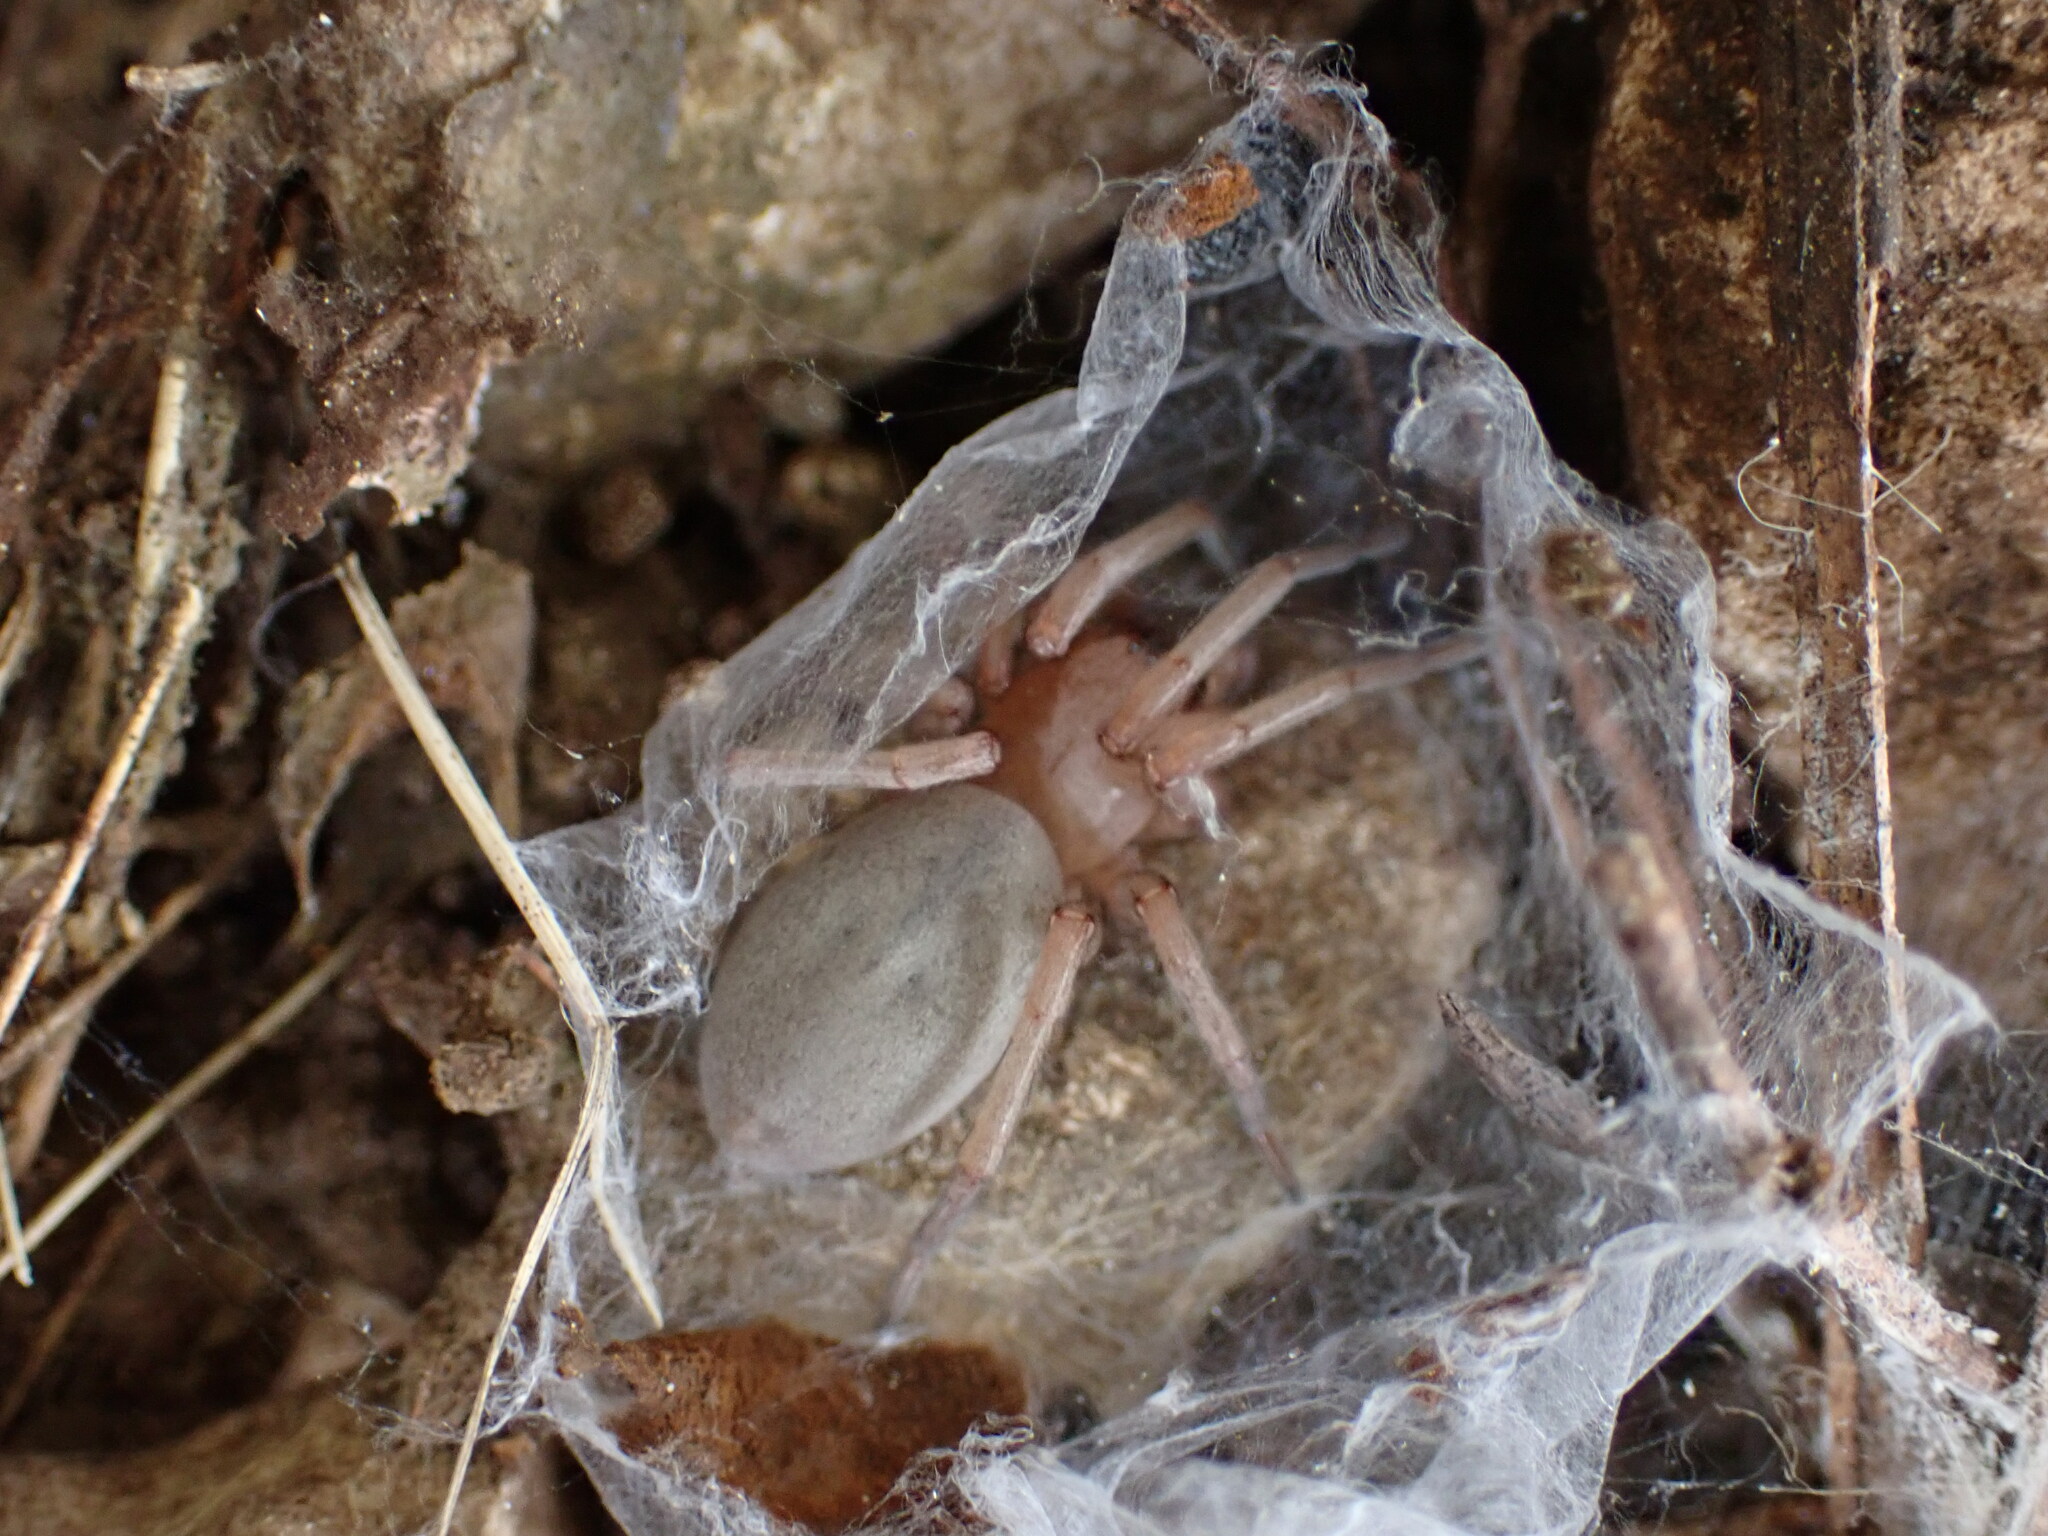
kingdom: Animalia
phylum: Arthropoda
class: Arachnida
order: Araneae
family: Gnaphosidae
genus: Drassodes
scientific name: Drassodes
